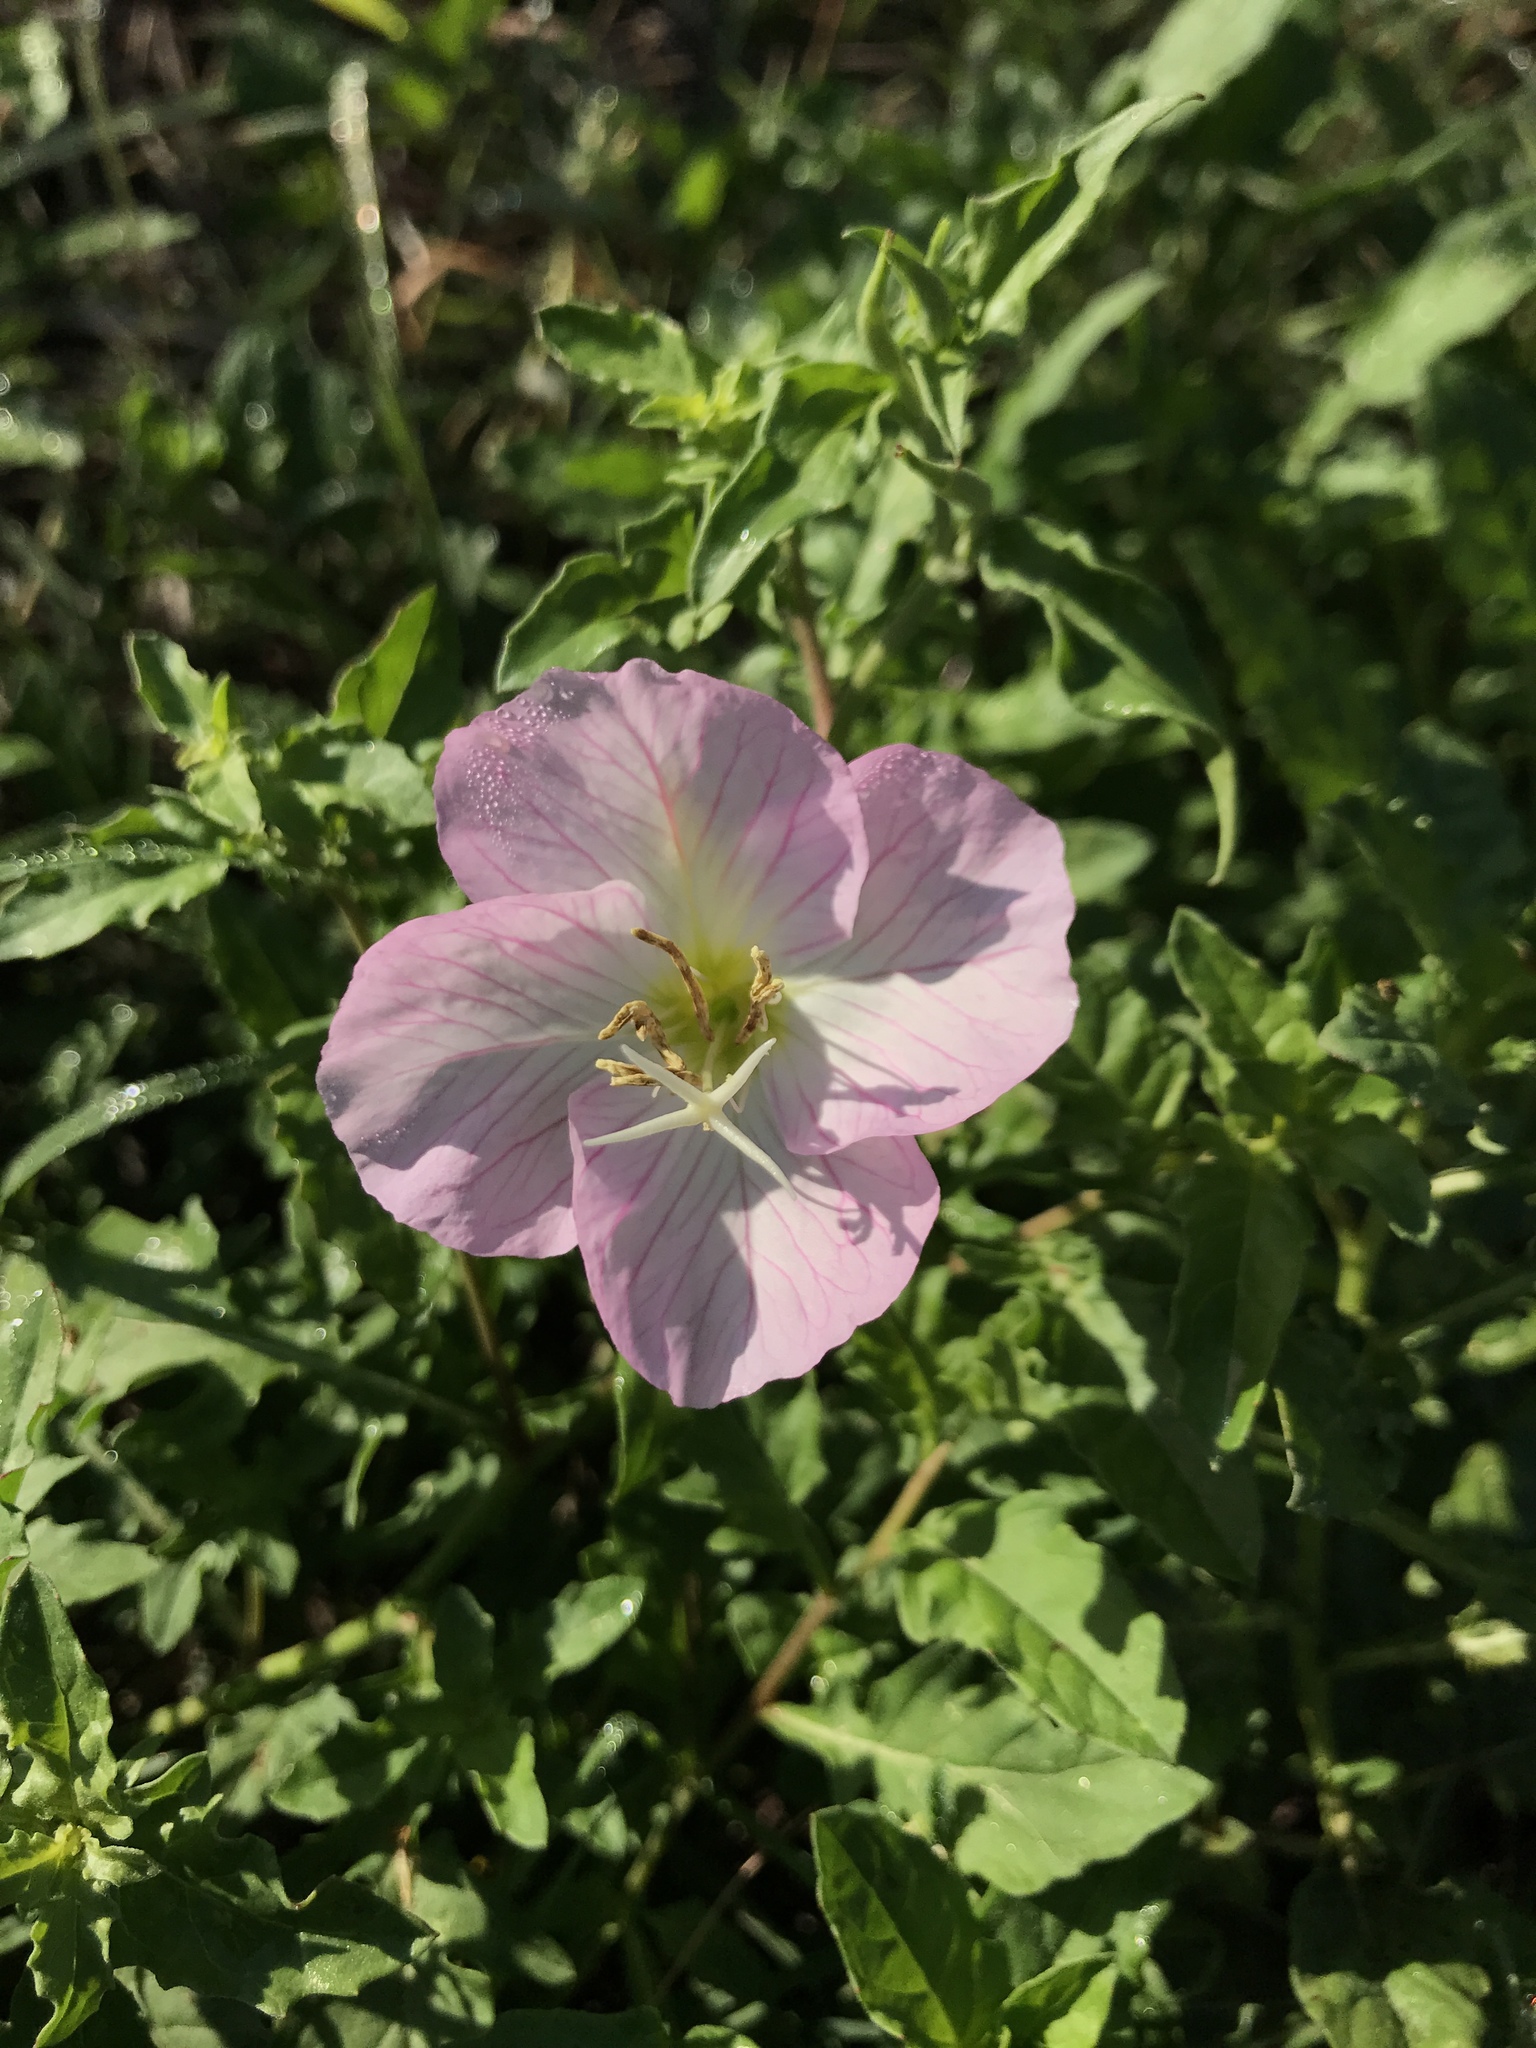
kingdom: Plantae
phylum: Tracheophyta
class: Magnoliopsida
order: Myrtales
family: Onagraceae
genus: Oenothera
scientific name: Oenothera speciosa
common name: White evening-primrose
